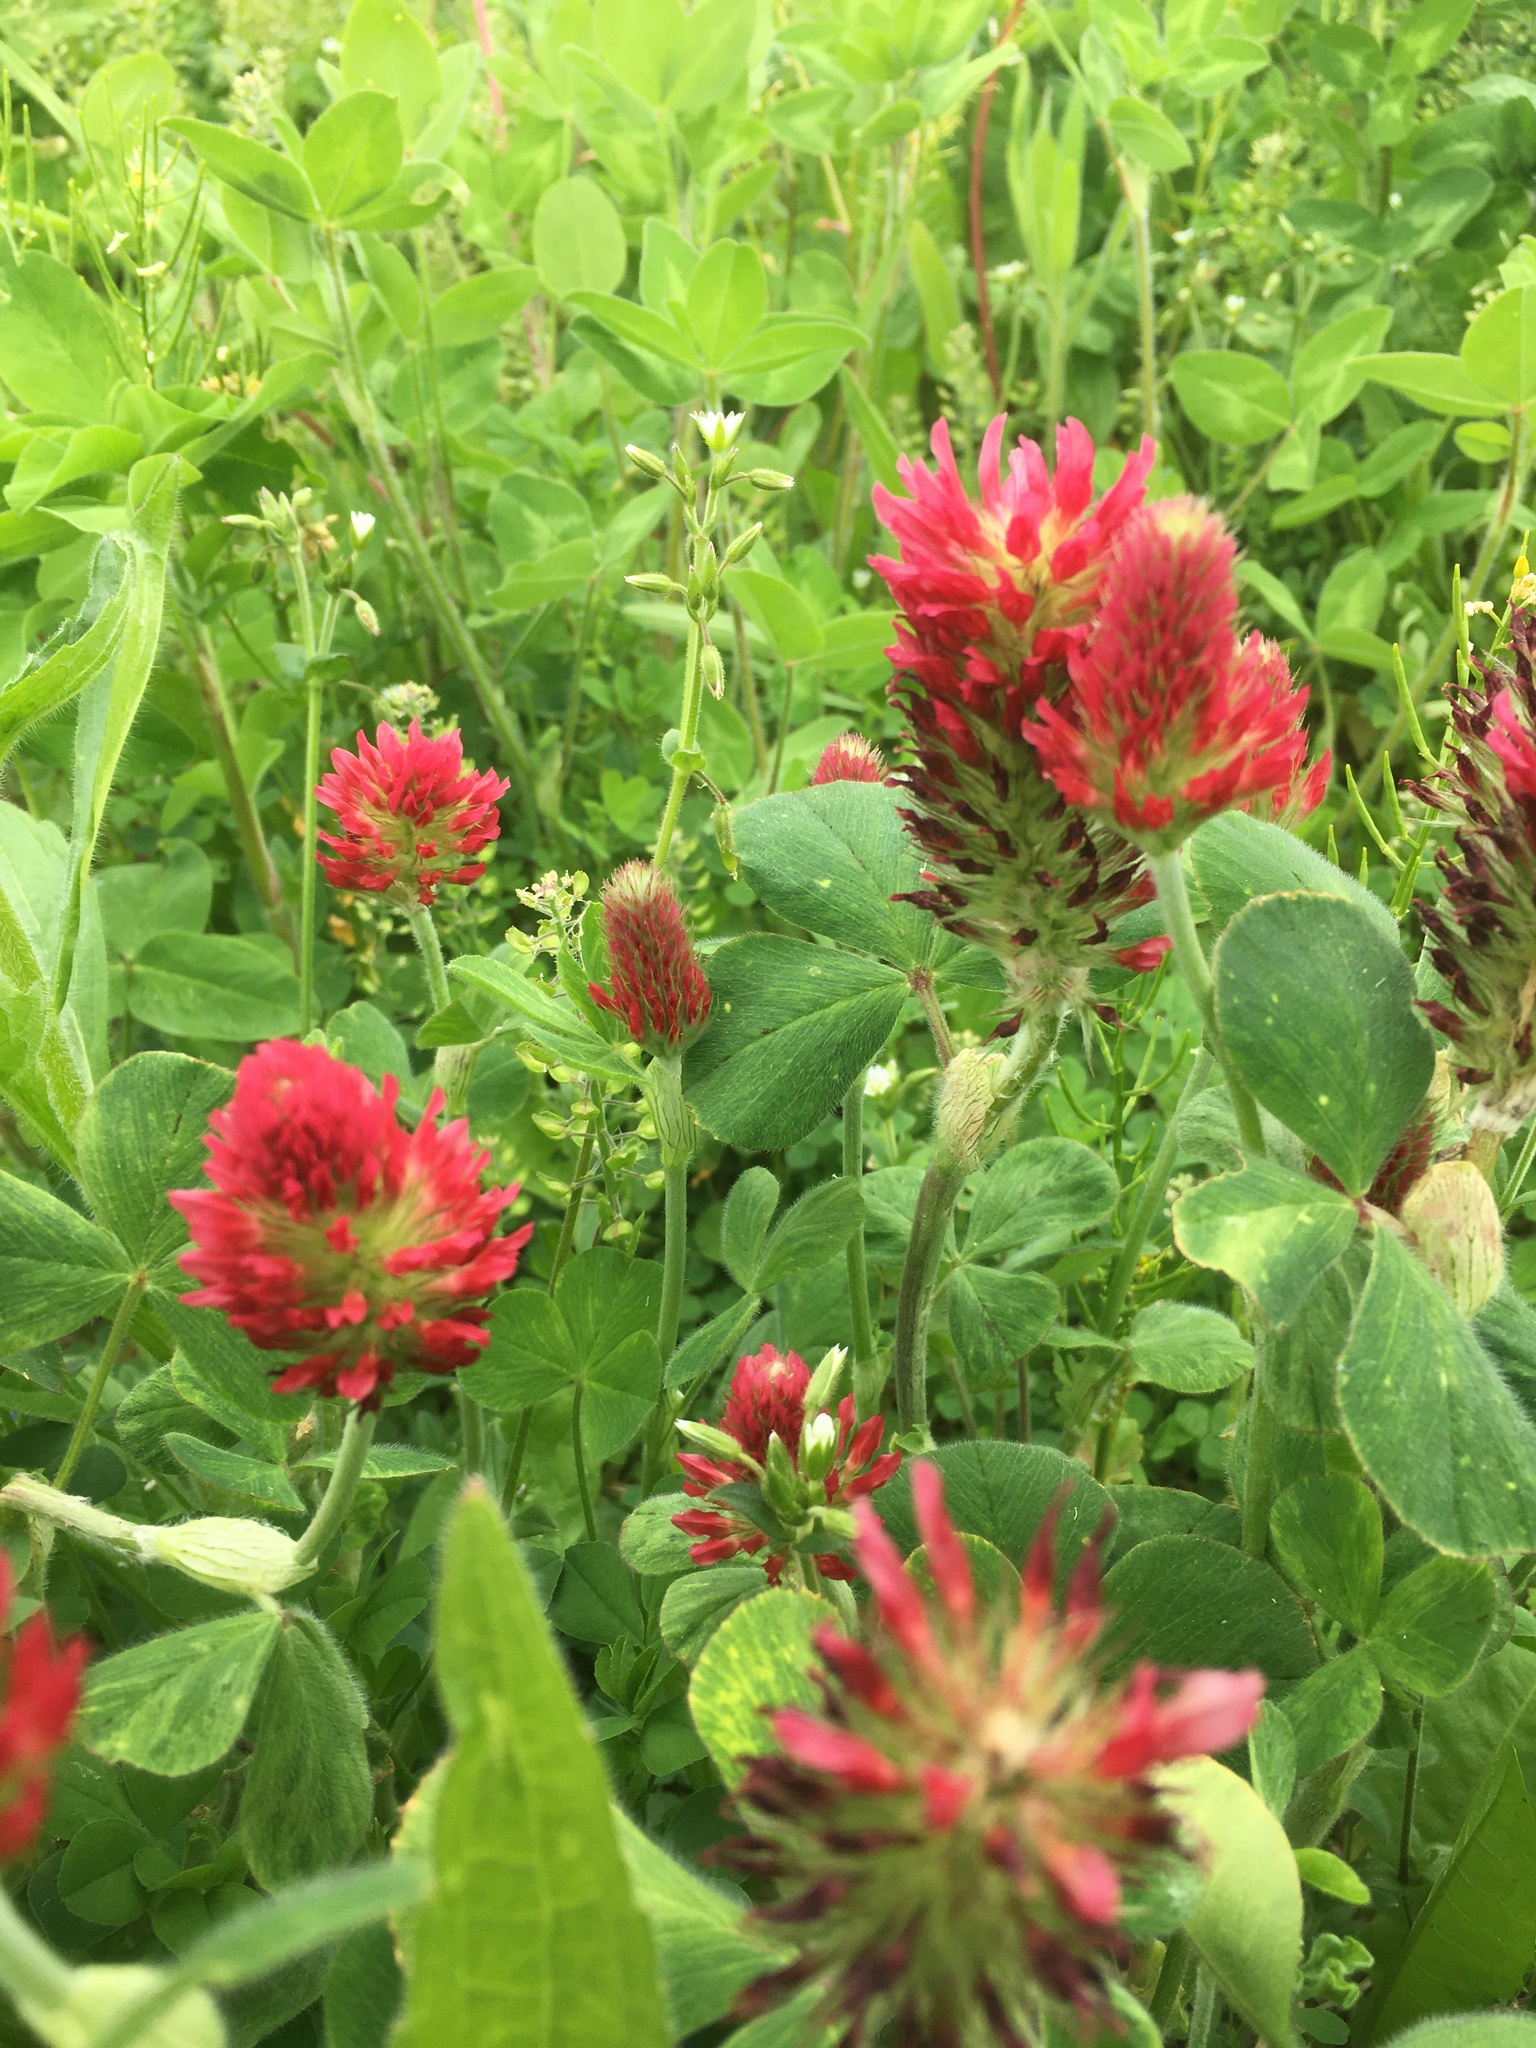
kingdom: Plantae
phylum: Tracheophyta
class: Magnoliopsida
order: Fabales
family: Fabaceae
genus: Trifolium
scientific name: Trifolium incarnatum
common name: Crimson clover
